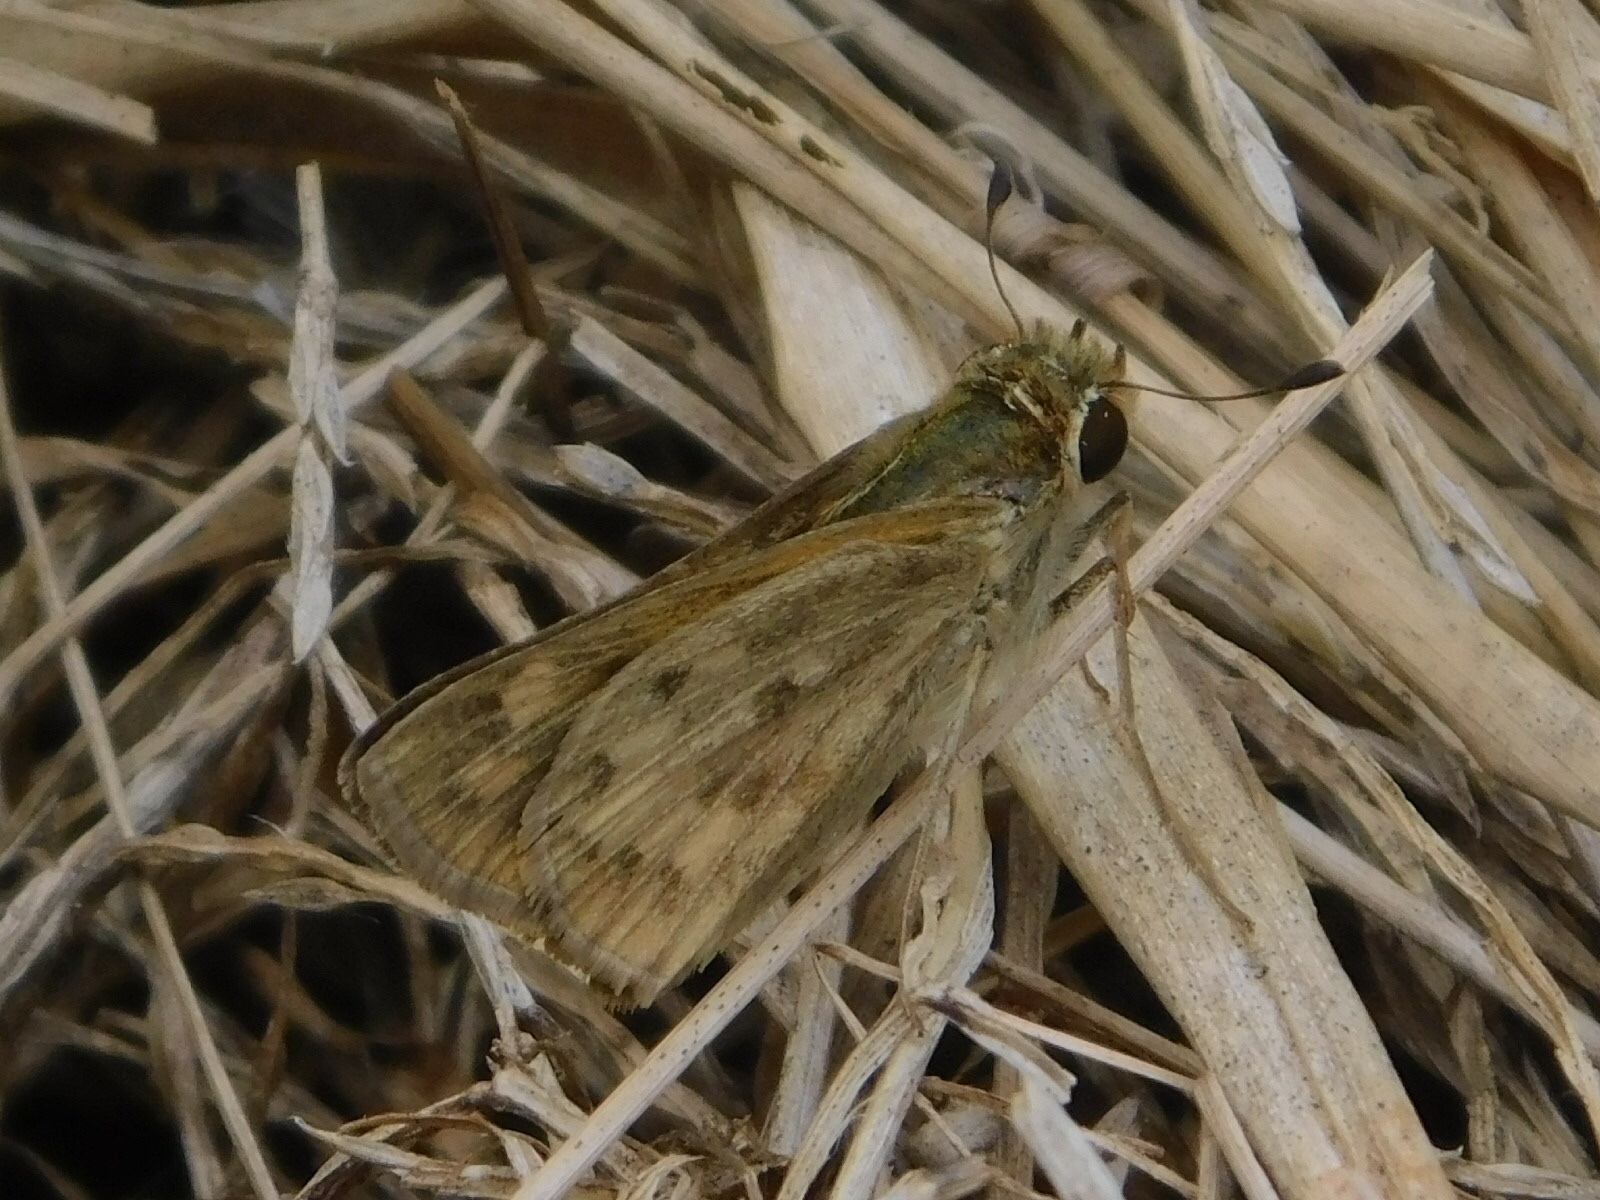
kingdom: Animalia
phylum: Arthropoda
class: Insecta
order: Lepidoptera
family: Hesperiidae
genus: Hylephila
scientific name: Hylephila phyleus
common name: Fiery skipper
